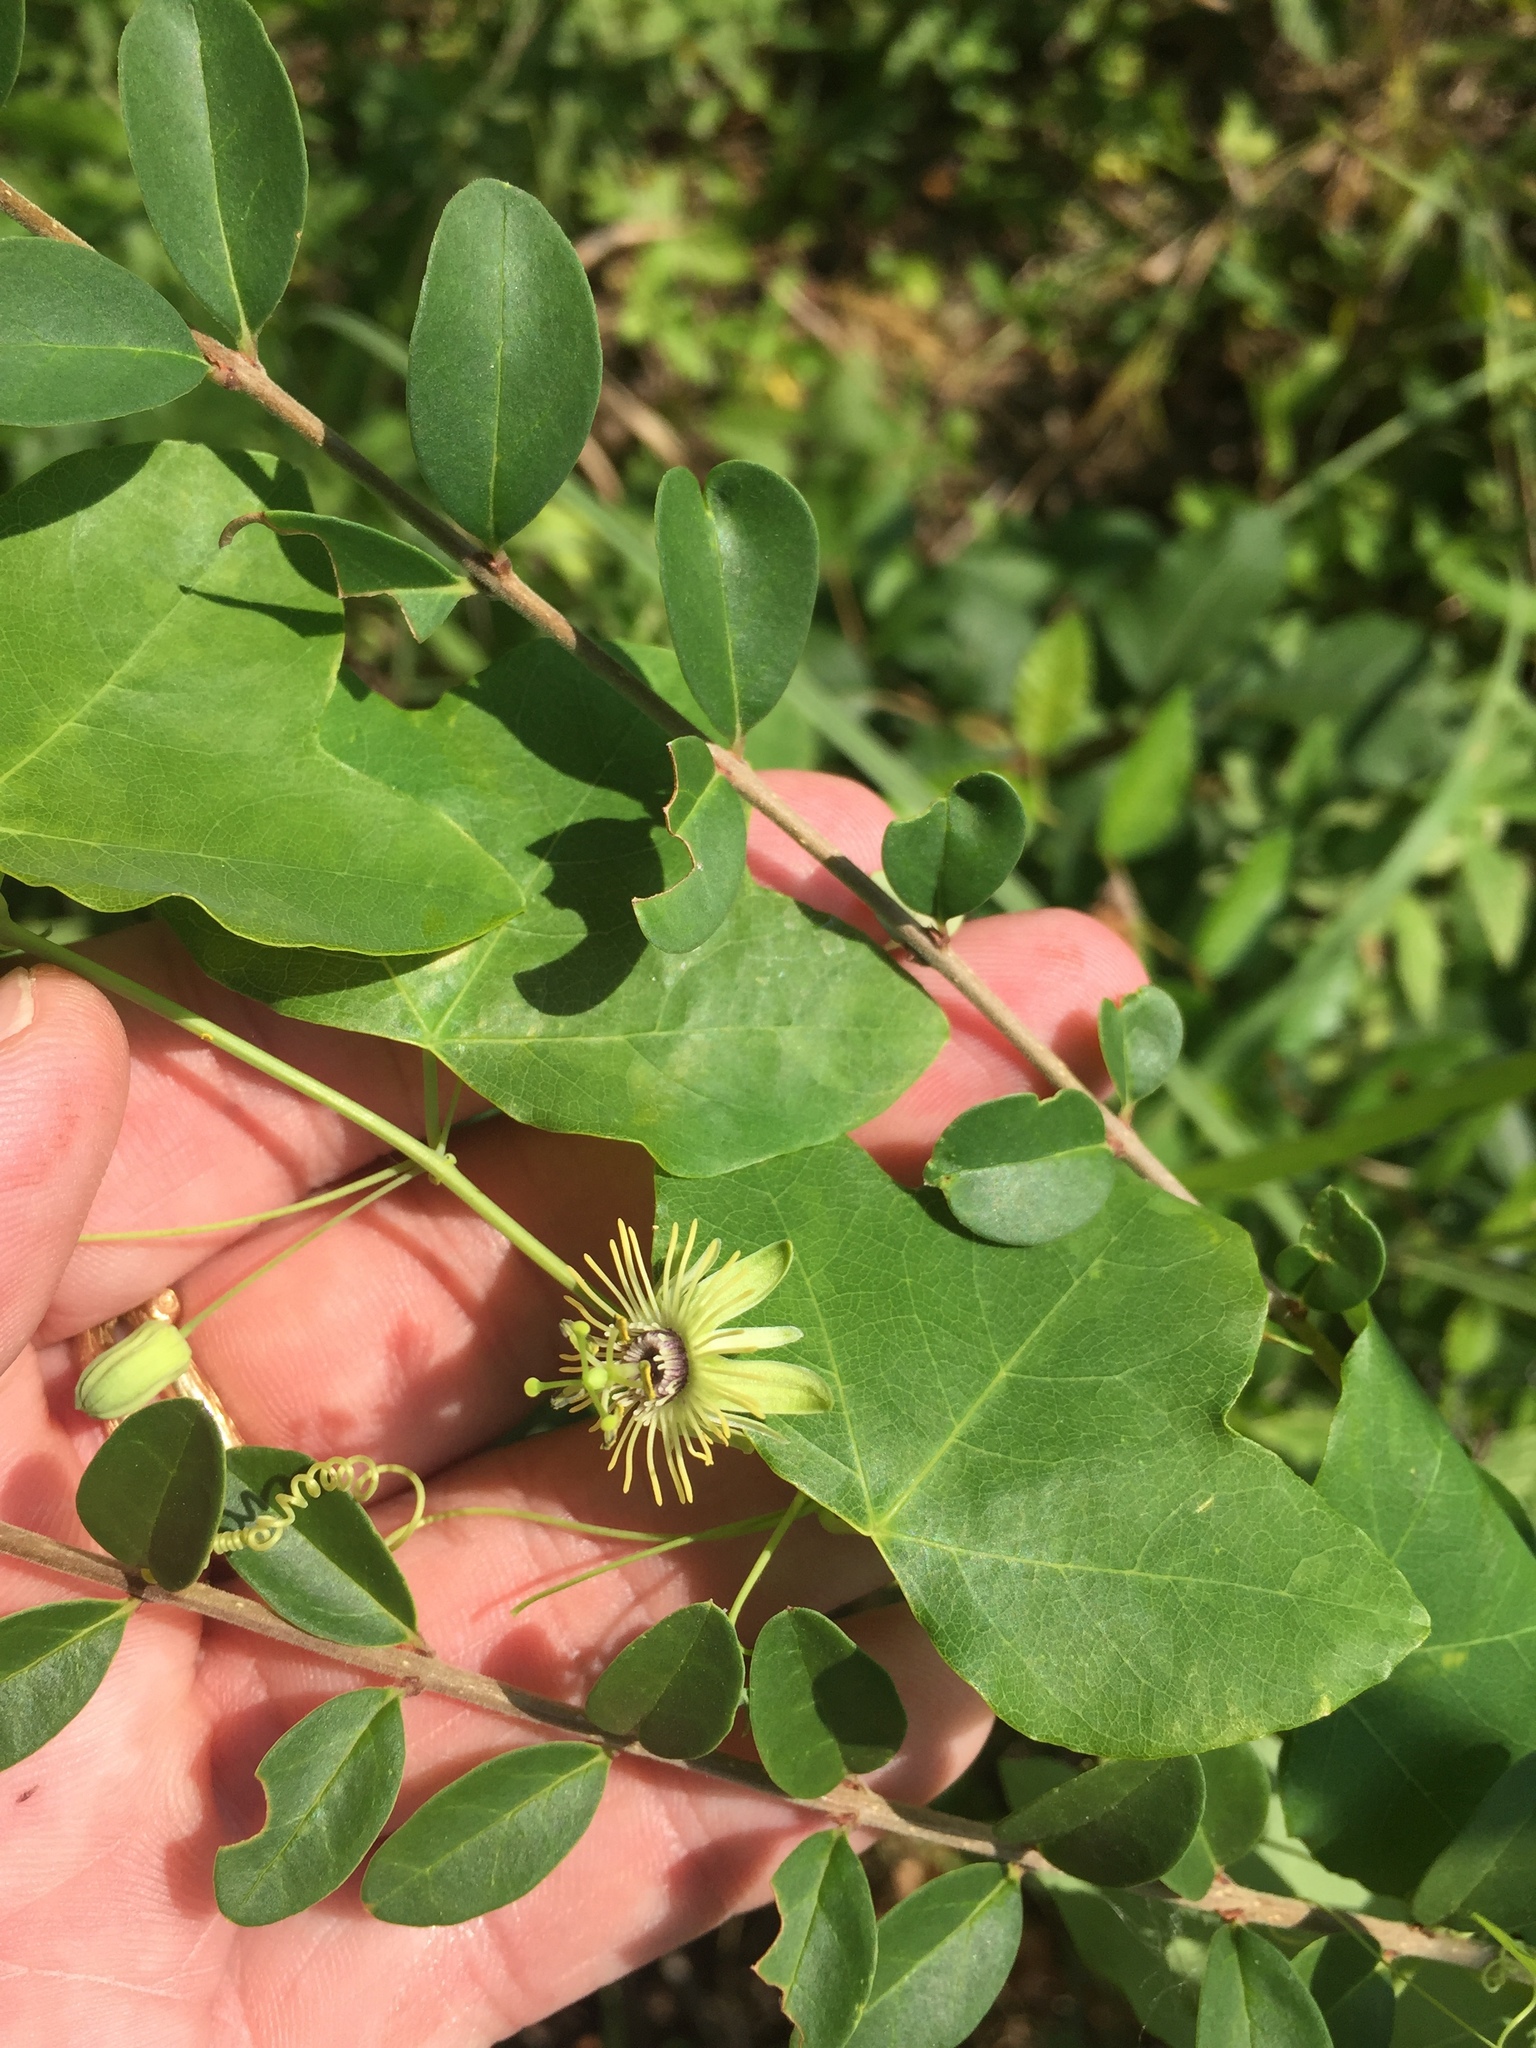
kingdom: Plantae
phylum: Tracheophyta
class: Magnoliopsida
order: Malpighiales
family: Passifloraceae
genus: Passiflora
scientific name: Passiflora lutea
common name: Yellow passionflower
